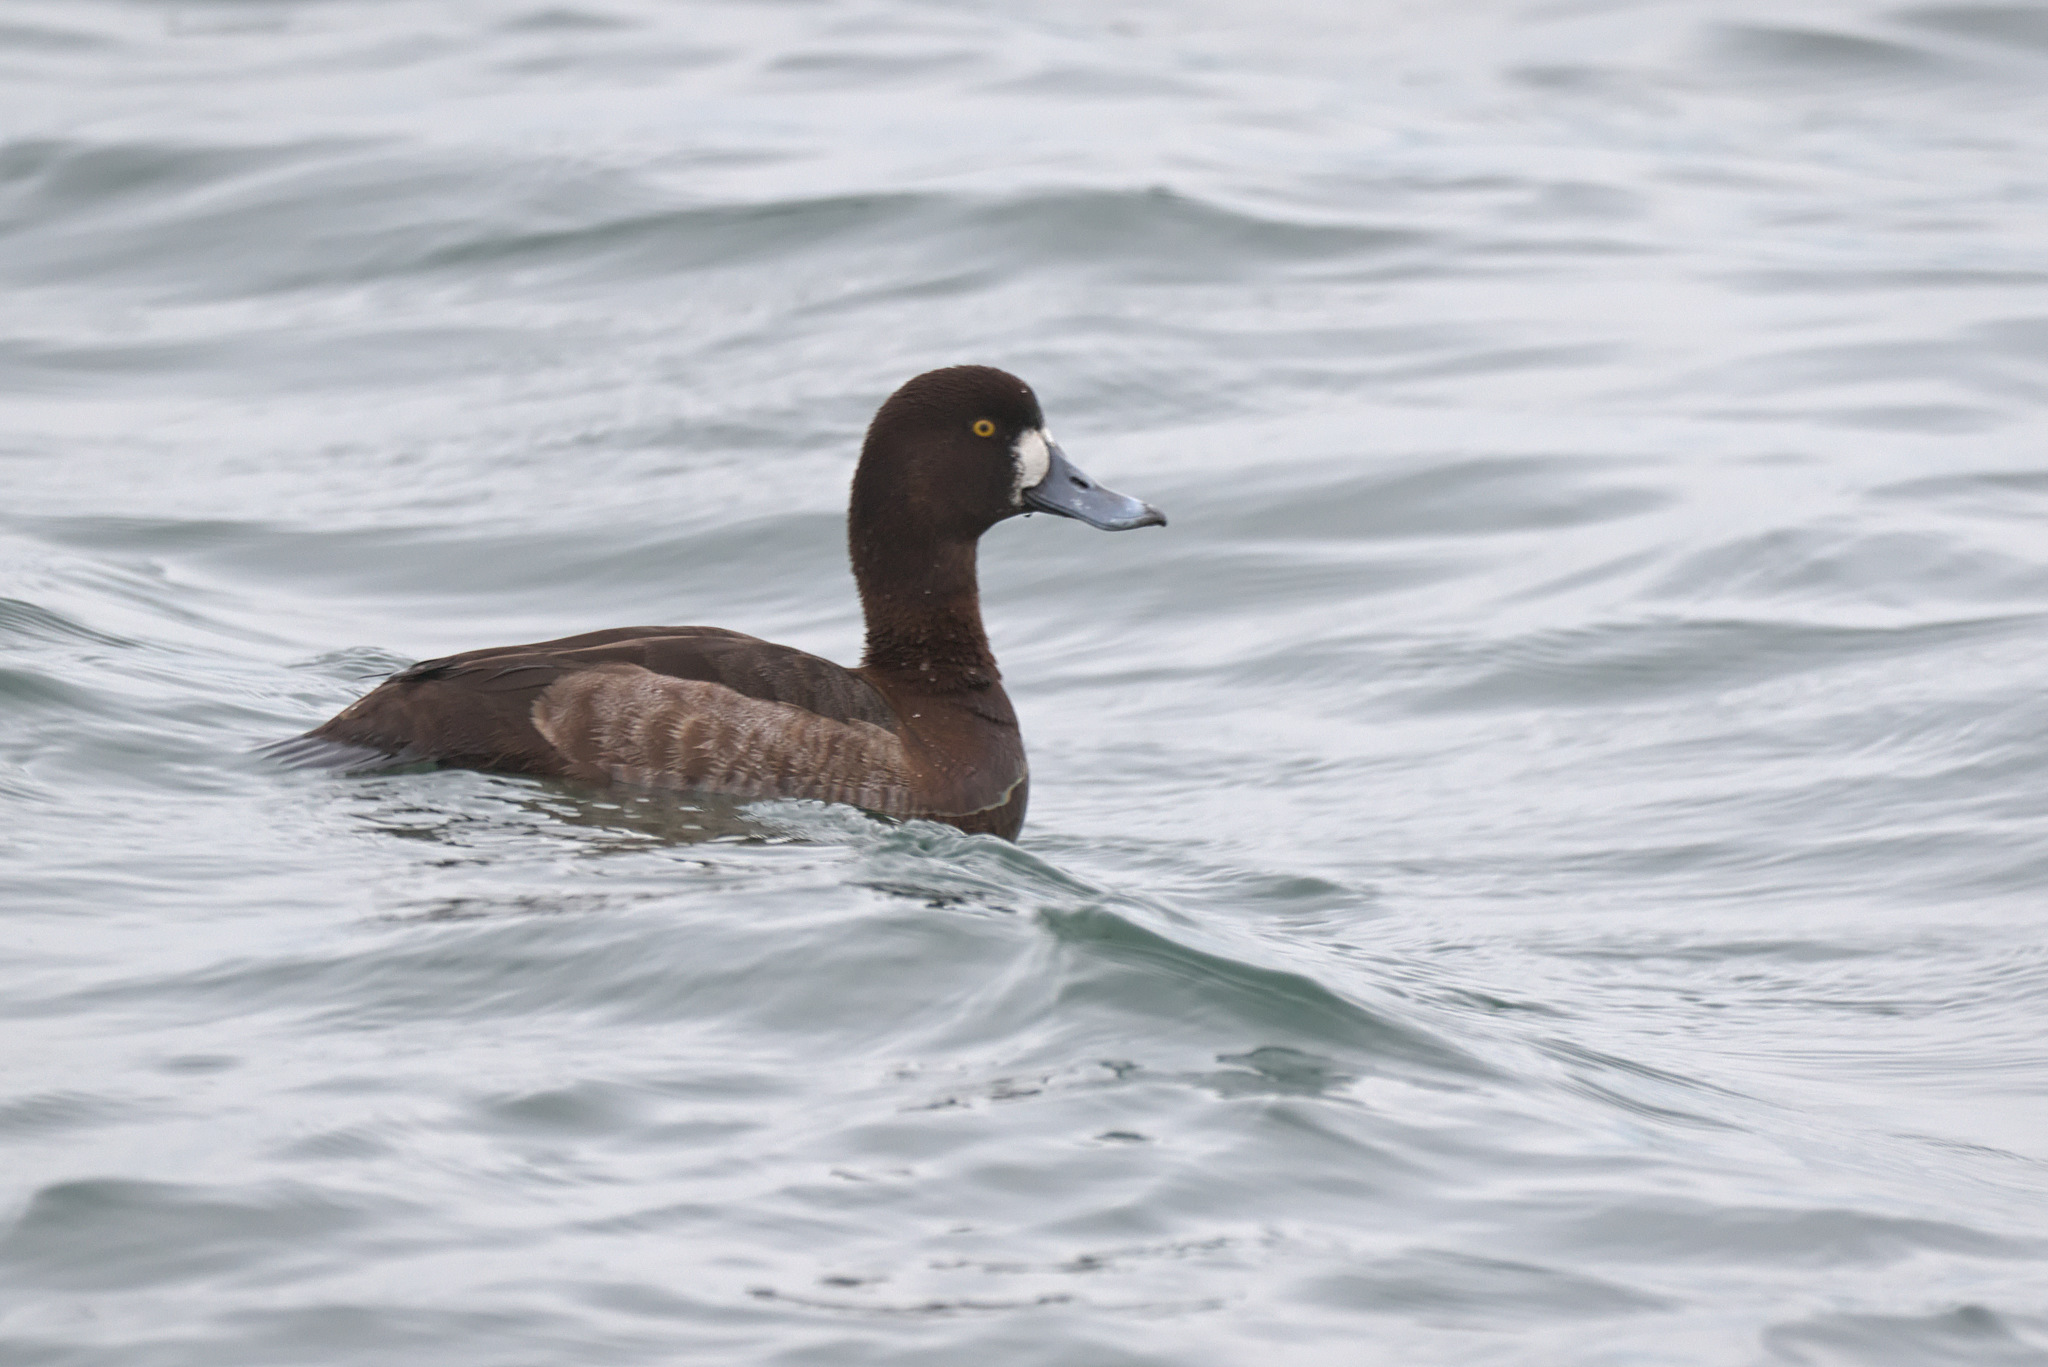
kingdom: Animalia
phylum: Chordata
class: Aves
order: Anseriformes
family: Anatidae
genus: Aythya
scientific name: Aythya marila
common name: Greater scaup
